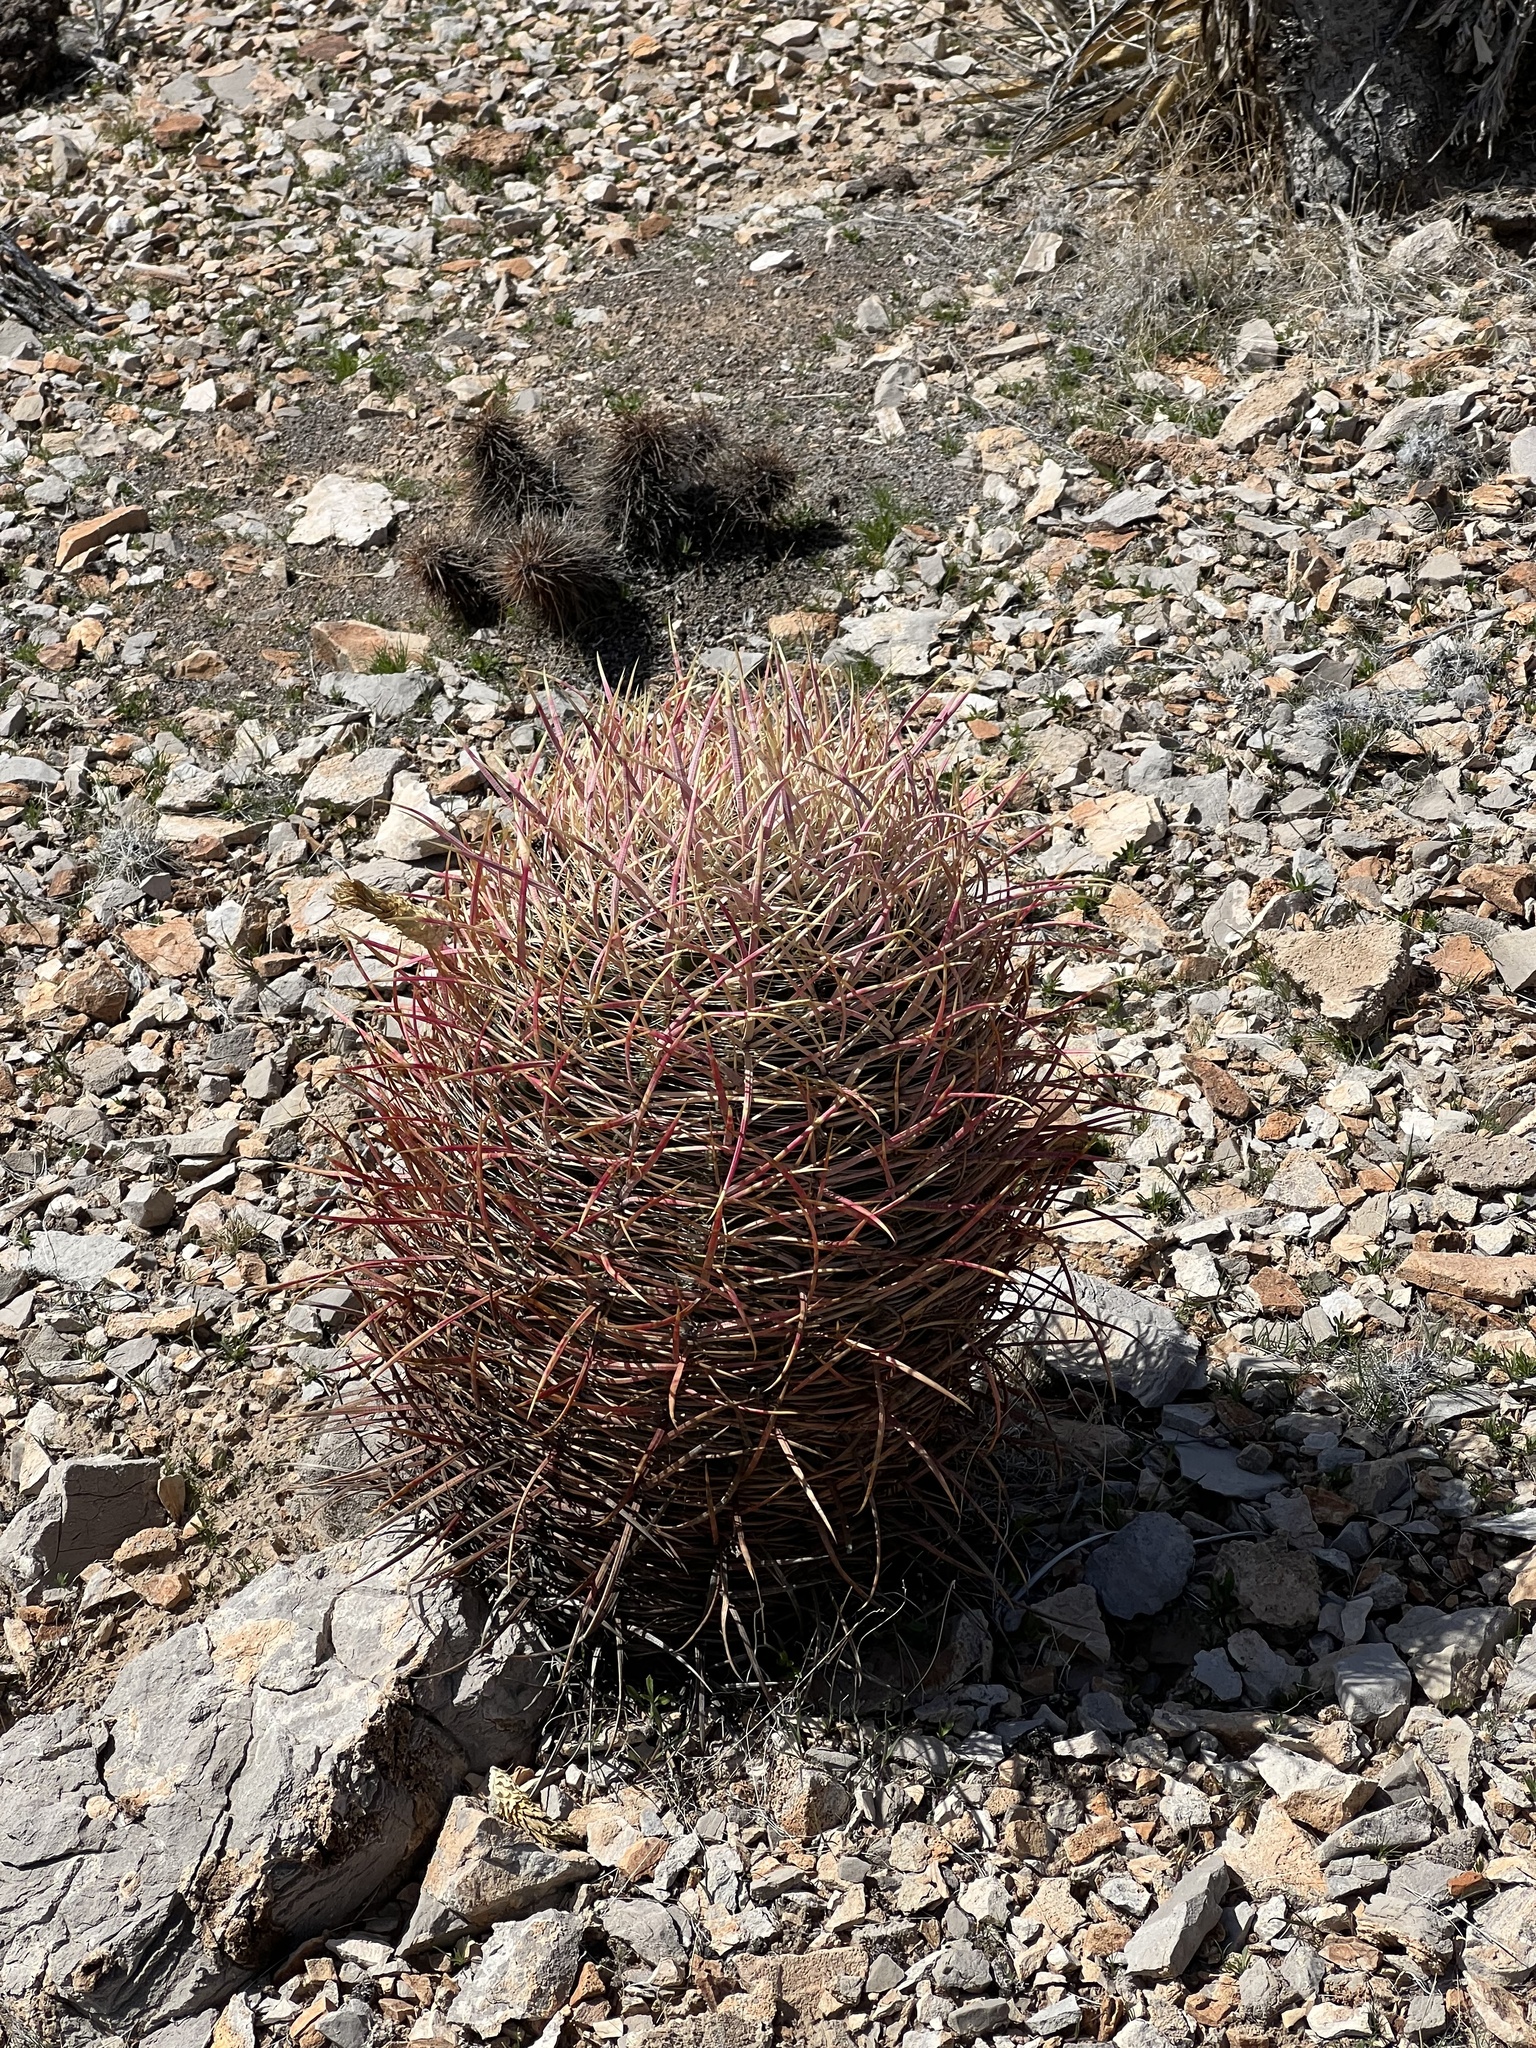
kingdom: Plantae
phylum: Tracheophyta
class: Magnoliopsida
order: Caryophyllales
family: Cactaceae
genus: Ferocactus
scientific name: Ferocactus cylindraceus
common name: California barrel cactus
